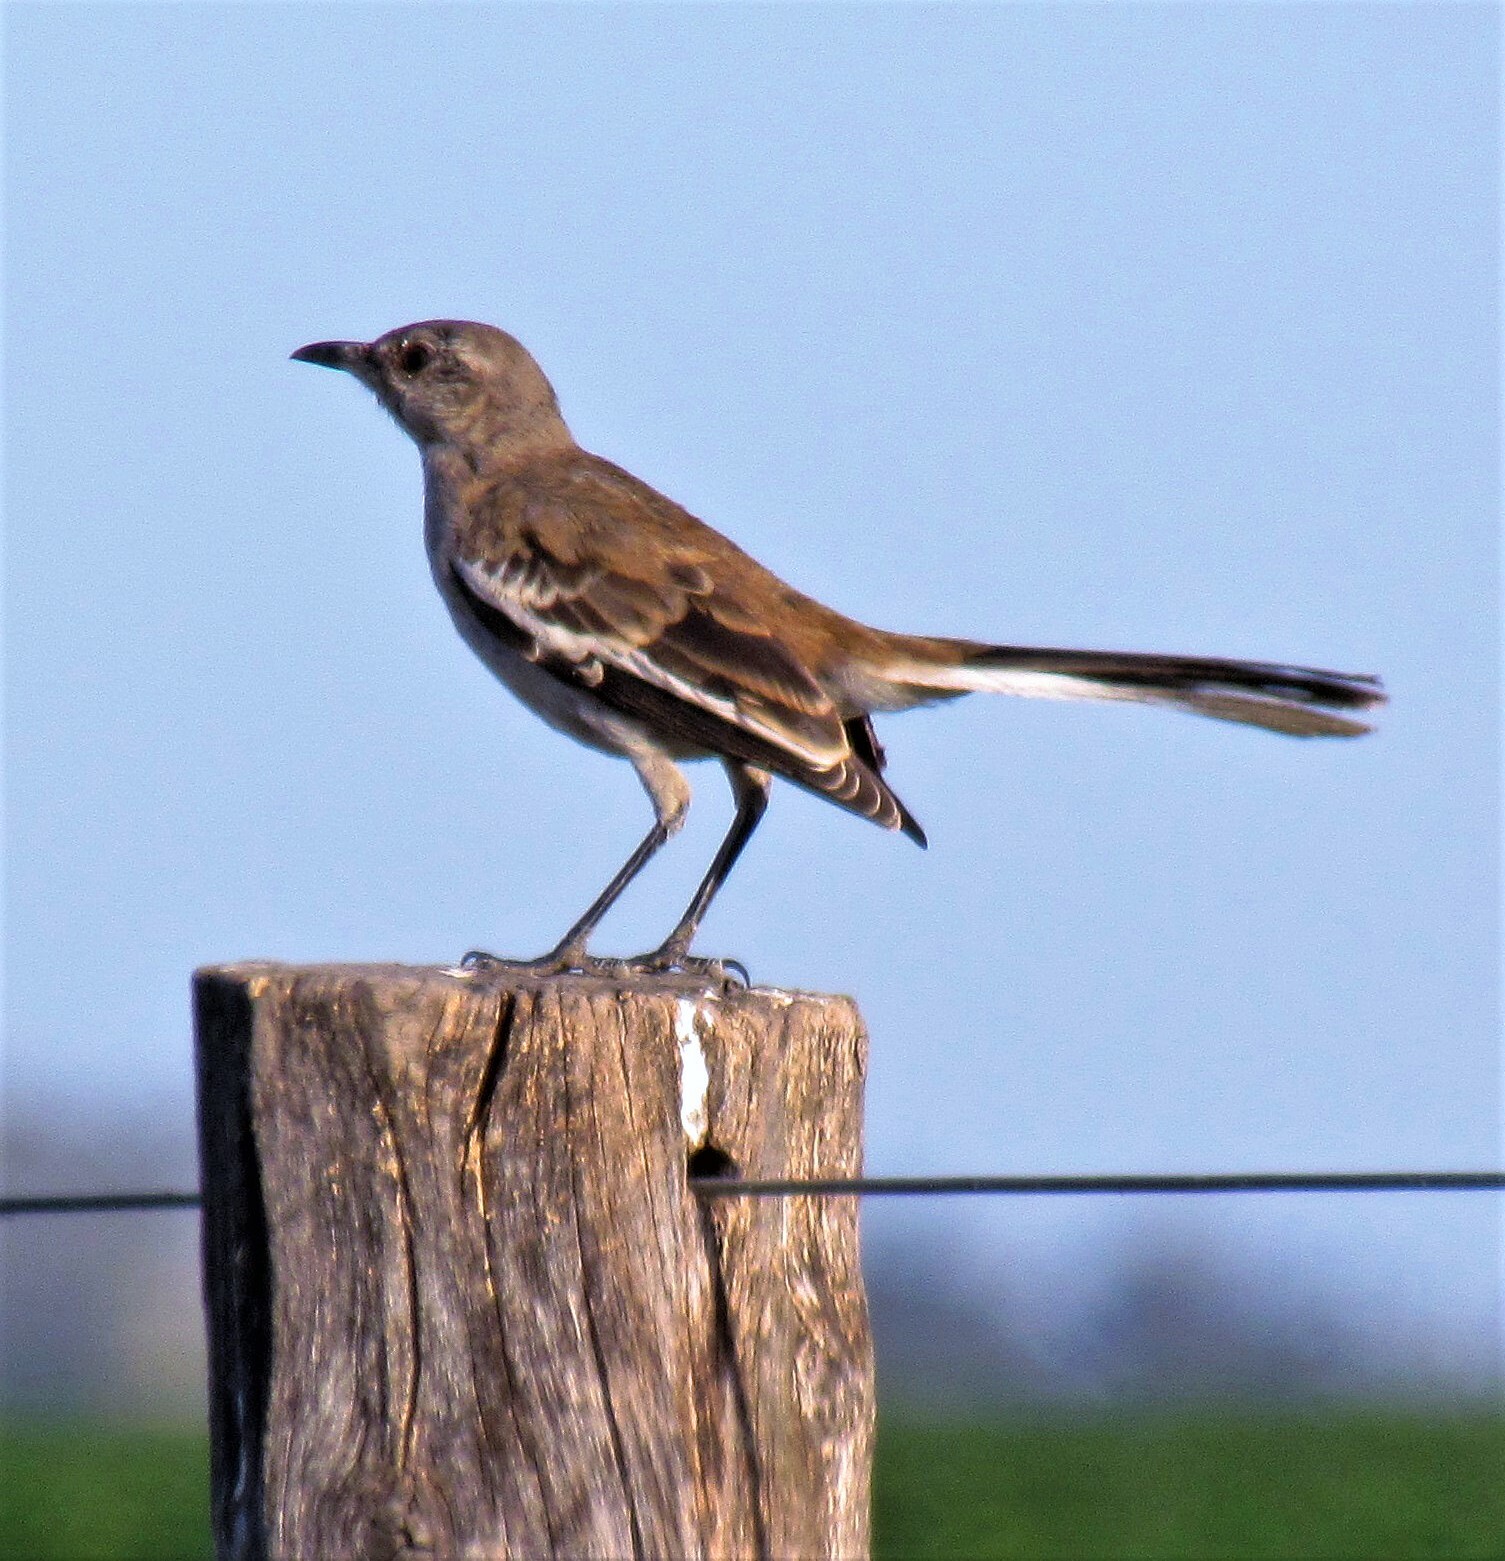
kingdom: Animalia
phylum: Chordata
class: Aves
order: Passeriformes
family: Mimidae
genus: Mimus
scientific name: Mimus triurus
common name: White-banded mockingbird
